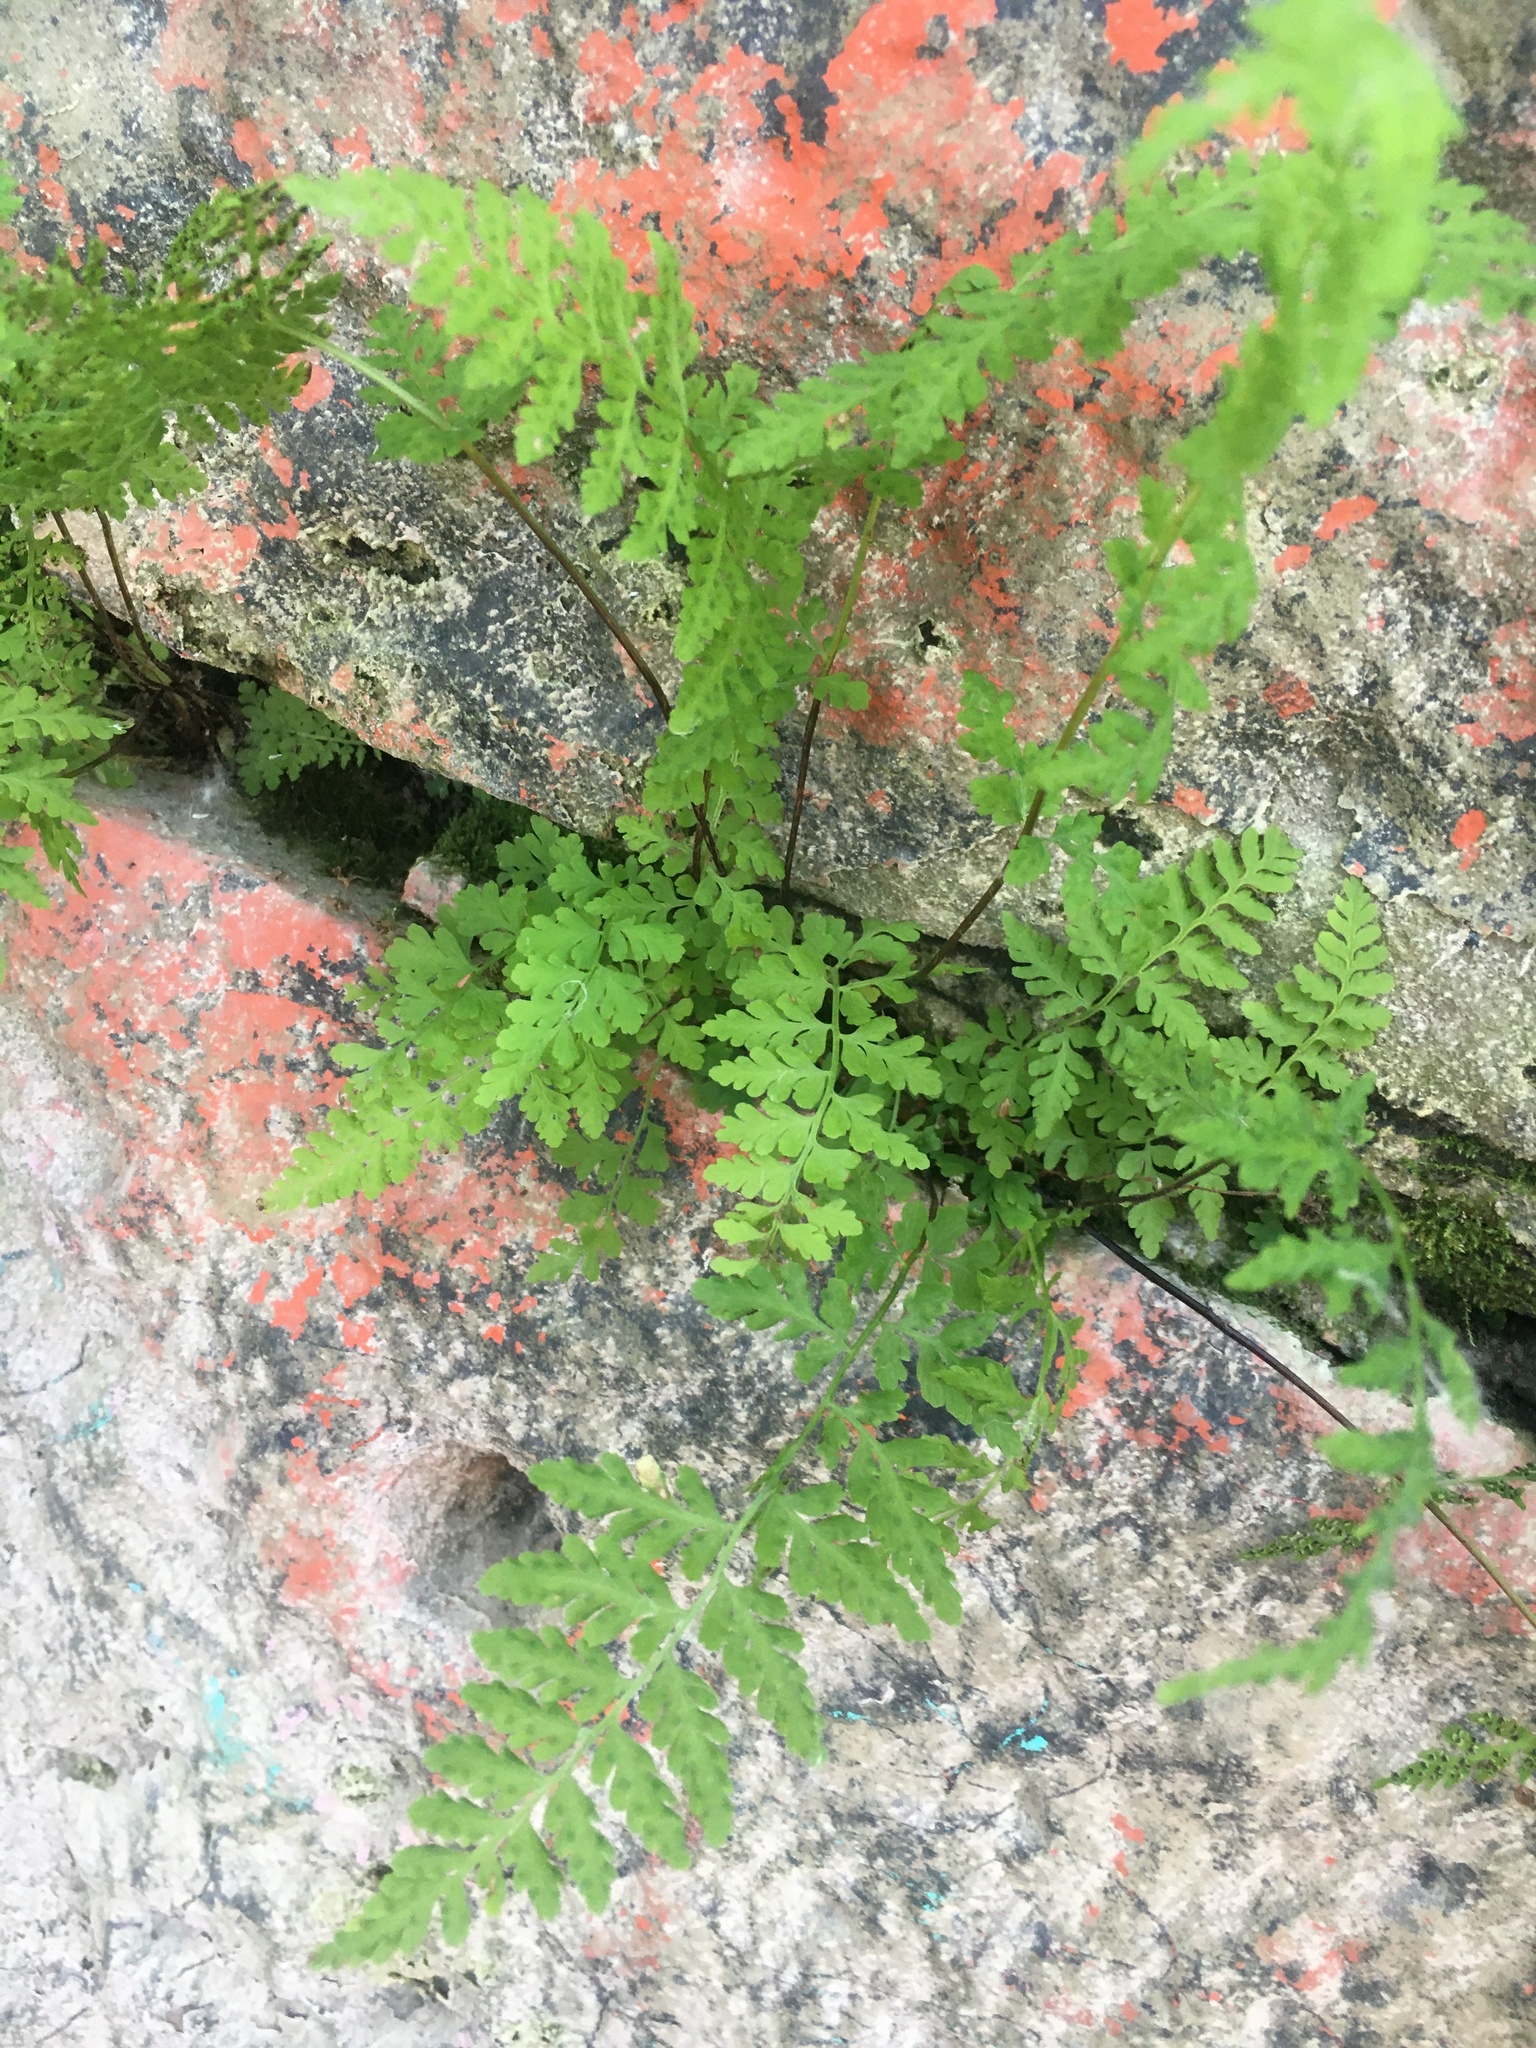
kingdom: Plantae
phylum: Tracheophyta
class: Polypodiopsida
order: Polypodiales
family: Cystopteridaceae
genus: Cystopteris
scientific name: Cystopteris fragilis
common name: Brittle bladder fern
